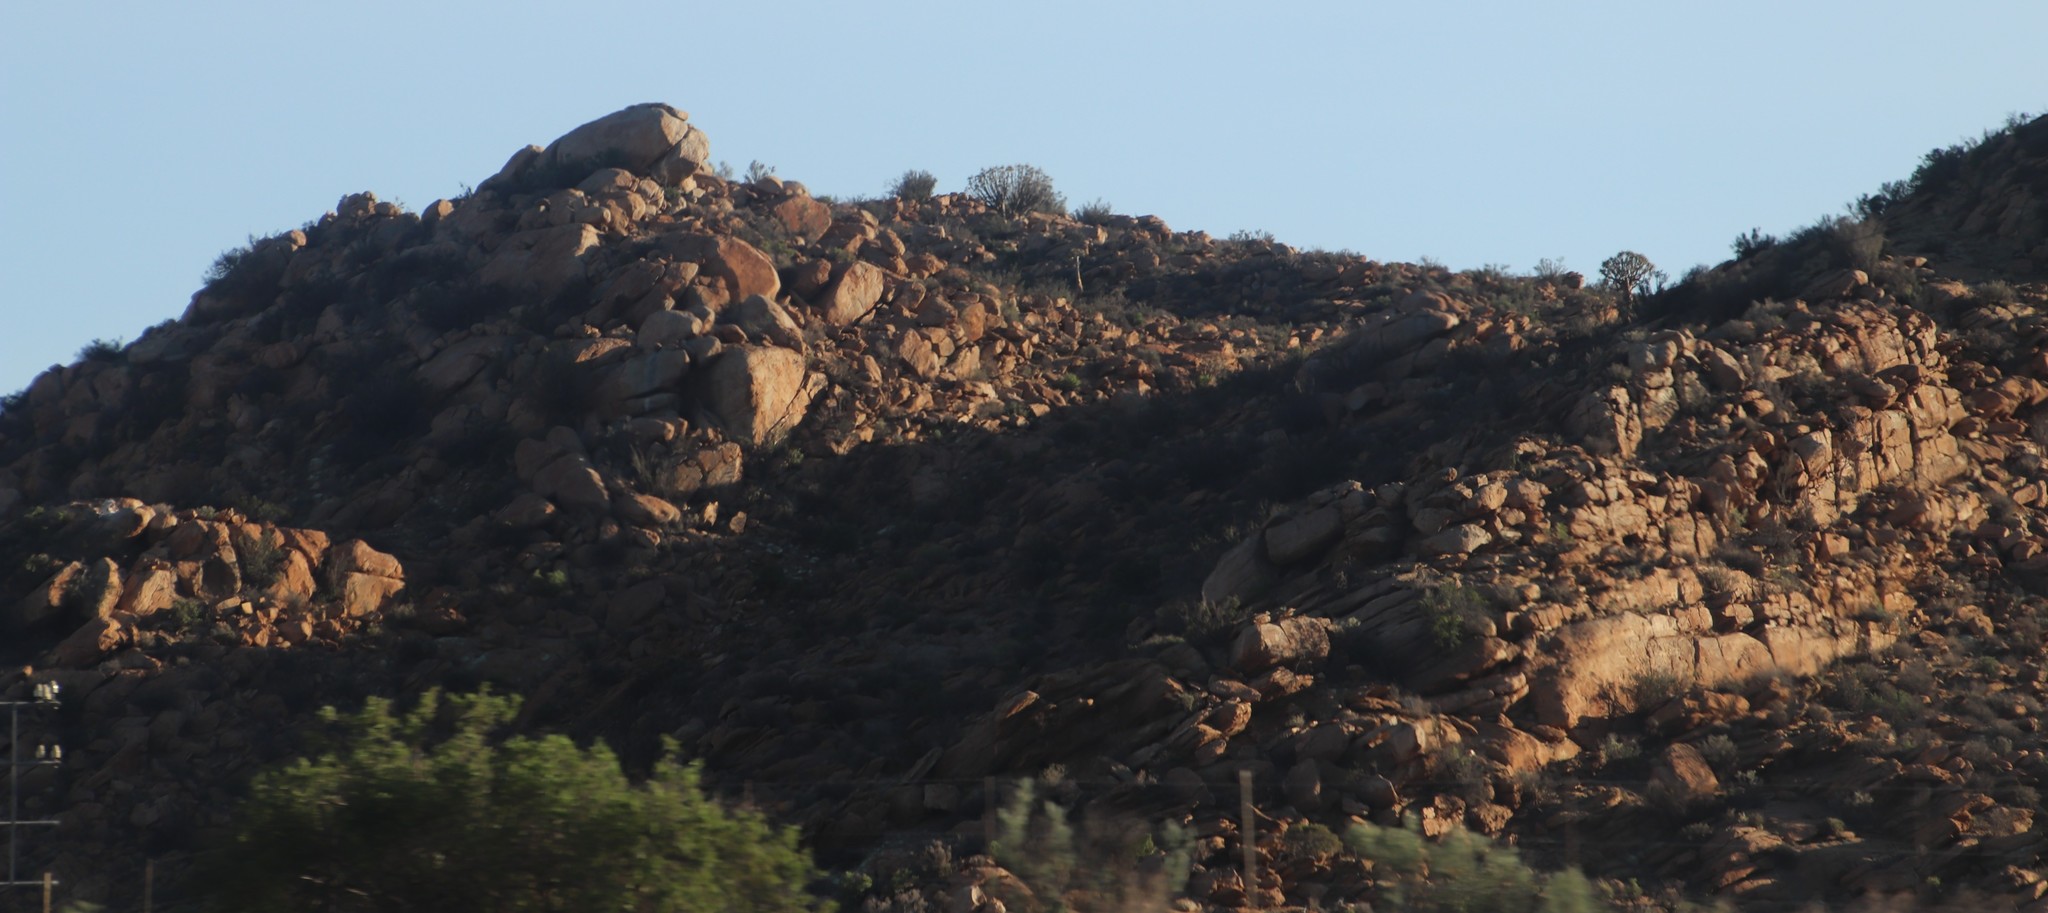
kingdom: Plantae
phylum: Tracheophyta
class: Liliopsida
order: Asparagales
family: Asphodelaceae
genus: Aloidendron
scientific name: Aloidendron dichotomum
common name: Quiver tree
